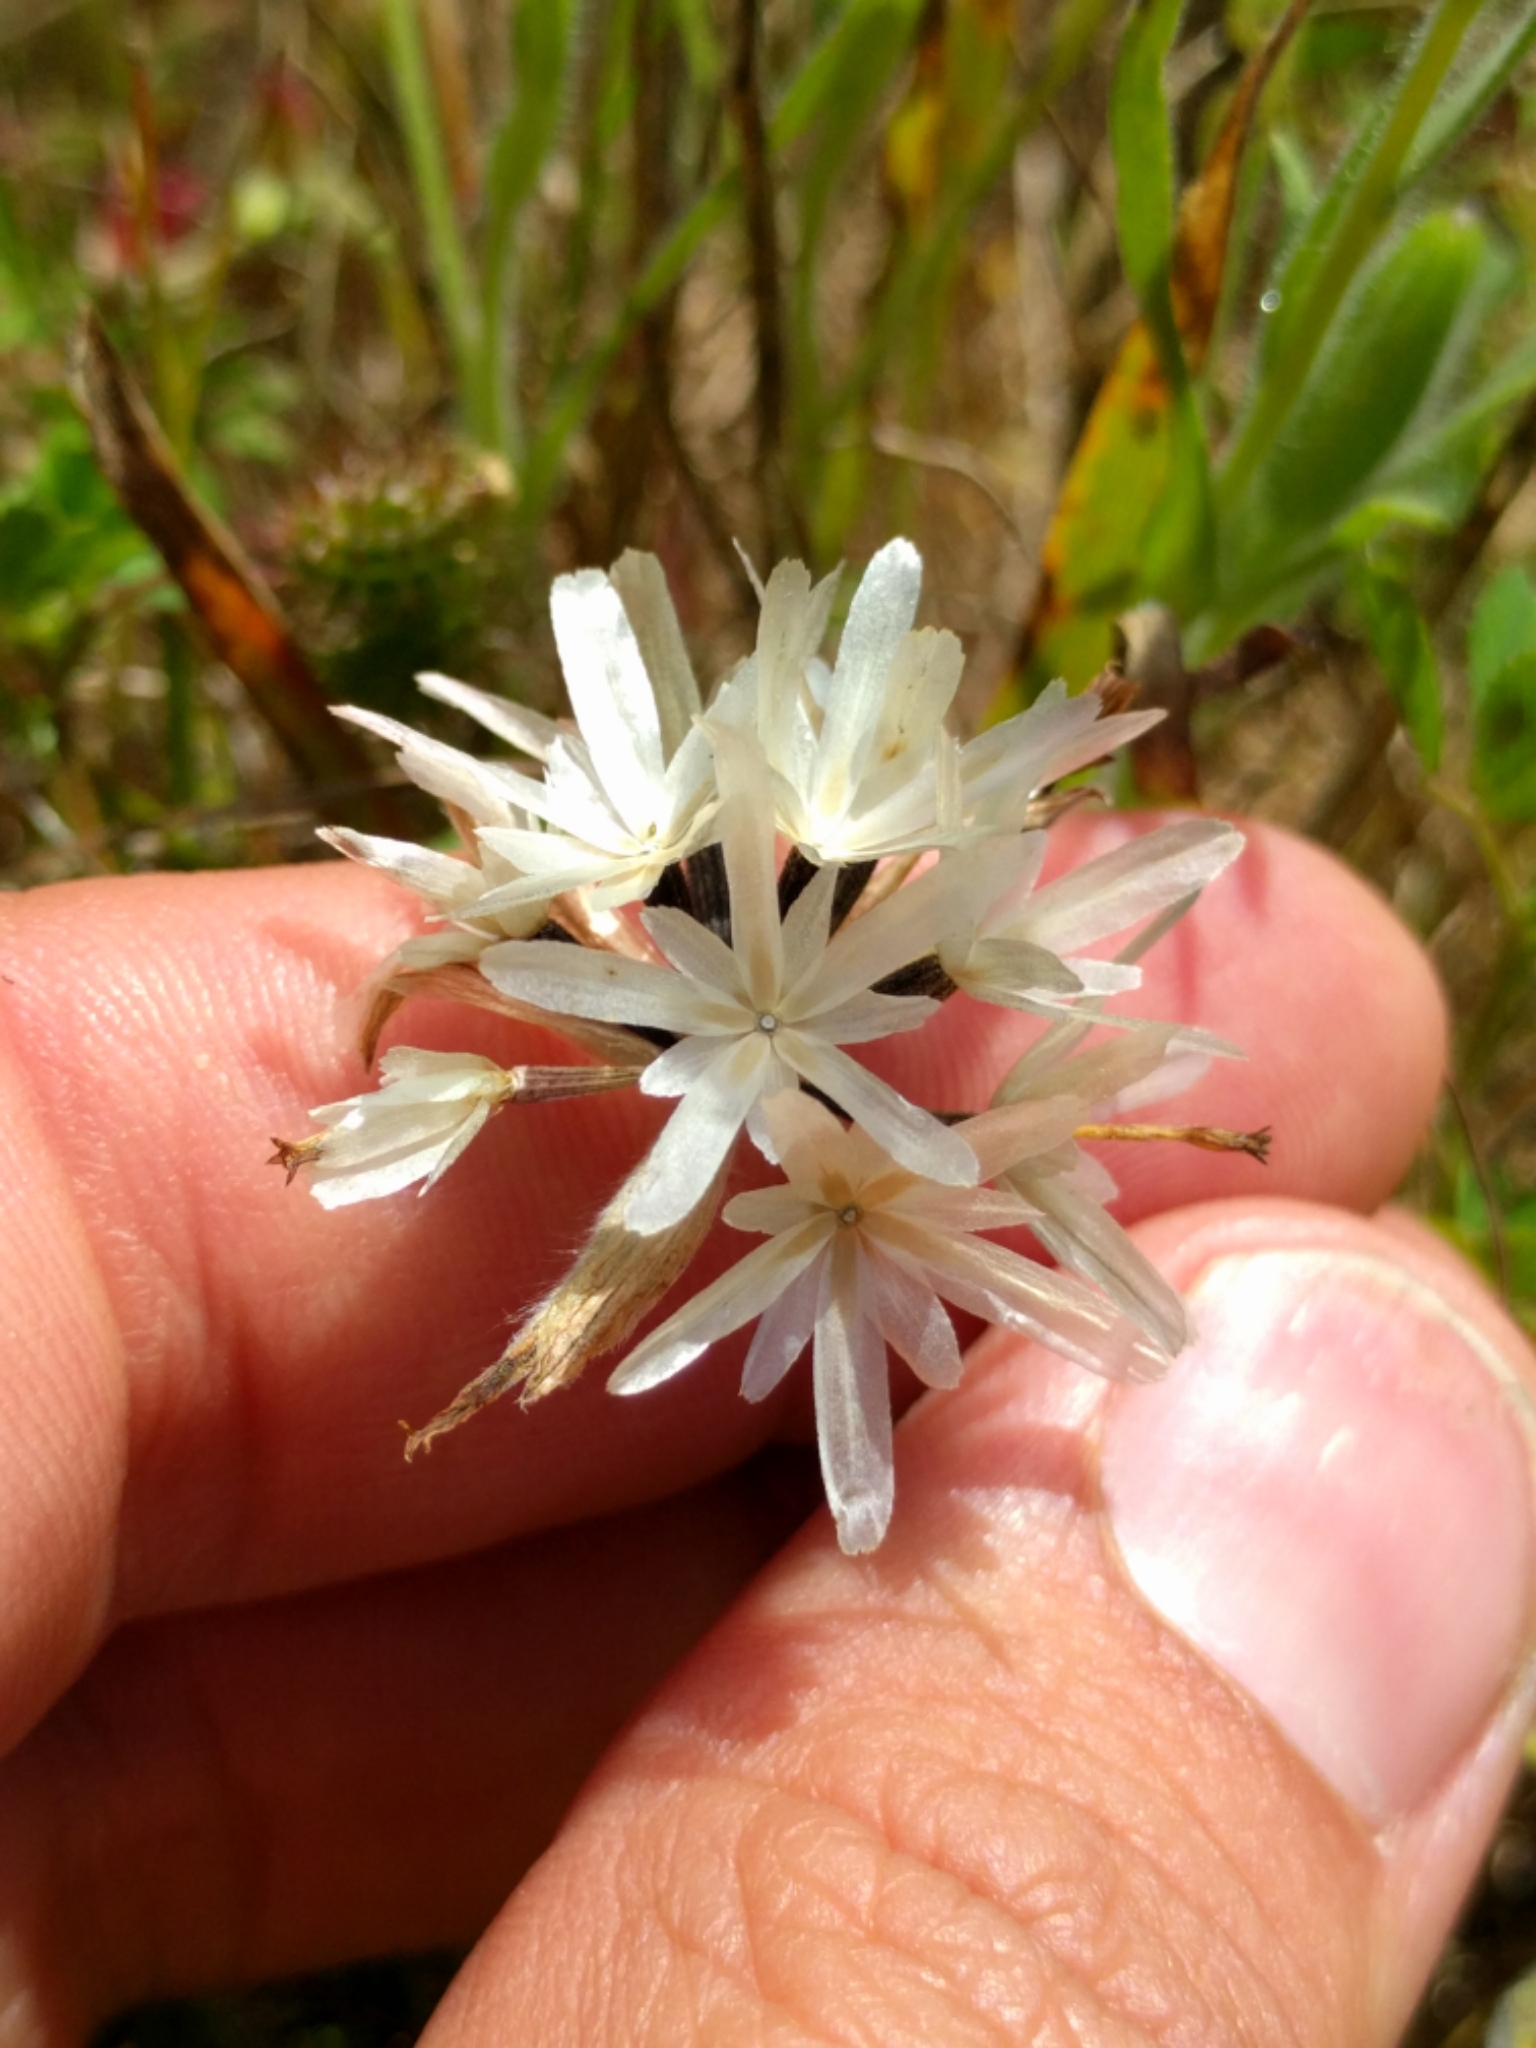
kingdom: Plantae
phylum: Tracheophyta
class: Magnoliopsida
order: Asterales
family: Asteraceae
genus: Achyrachaena
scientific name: Achyrachaena mollis
